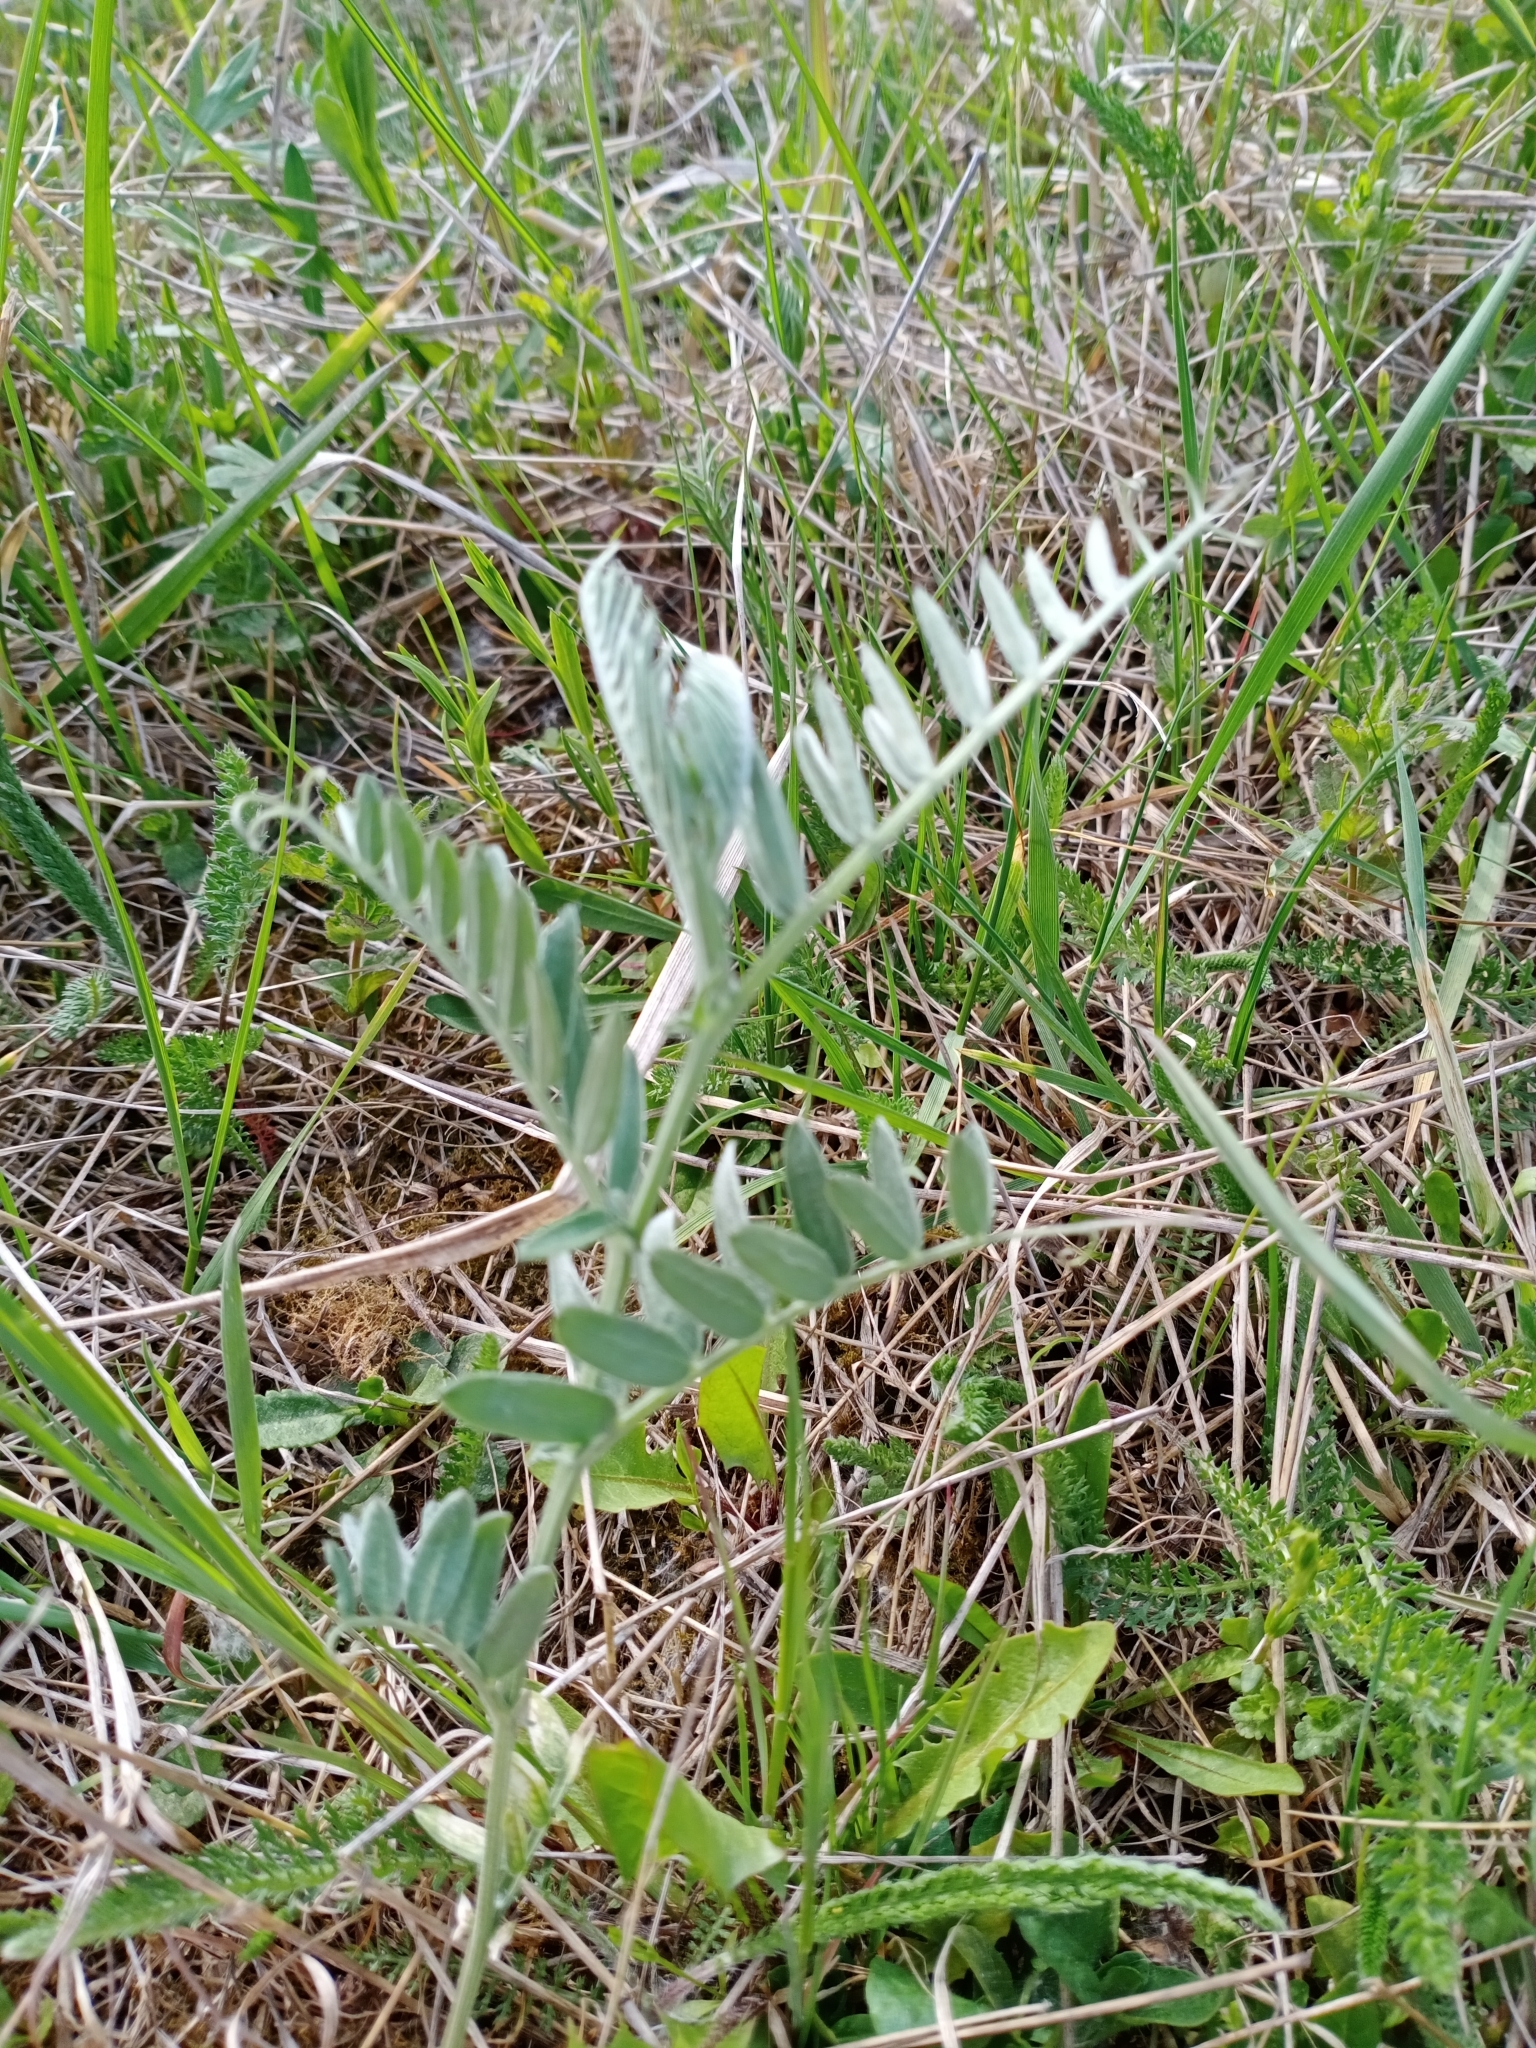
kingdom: Plantae
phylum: Tracheophyta
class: Magnoliopsida
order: Fabales
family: Fabaceae
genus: Vicia
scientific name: Vicia cracca
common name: Bird vetch
